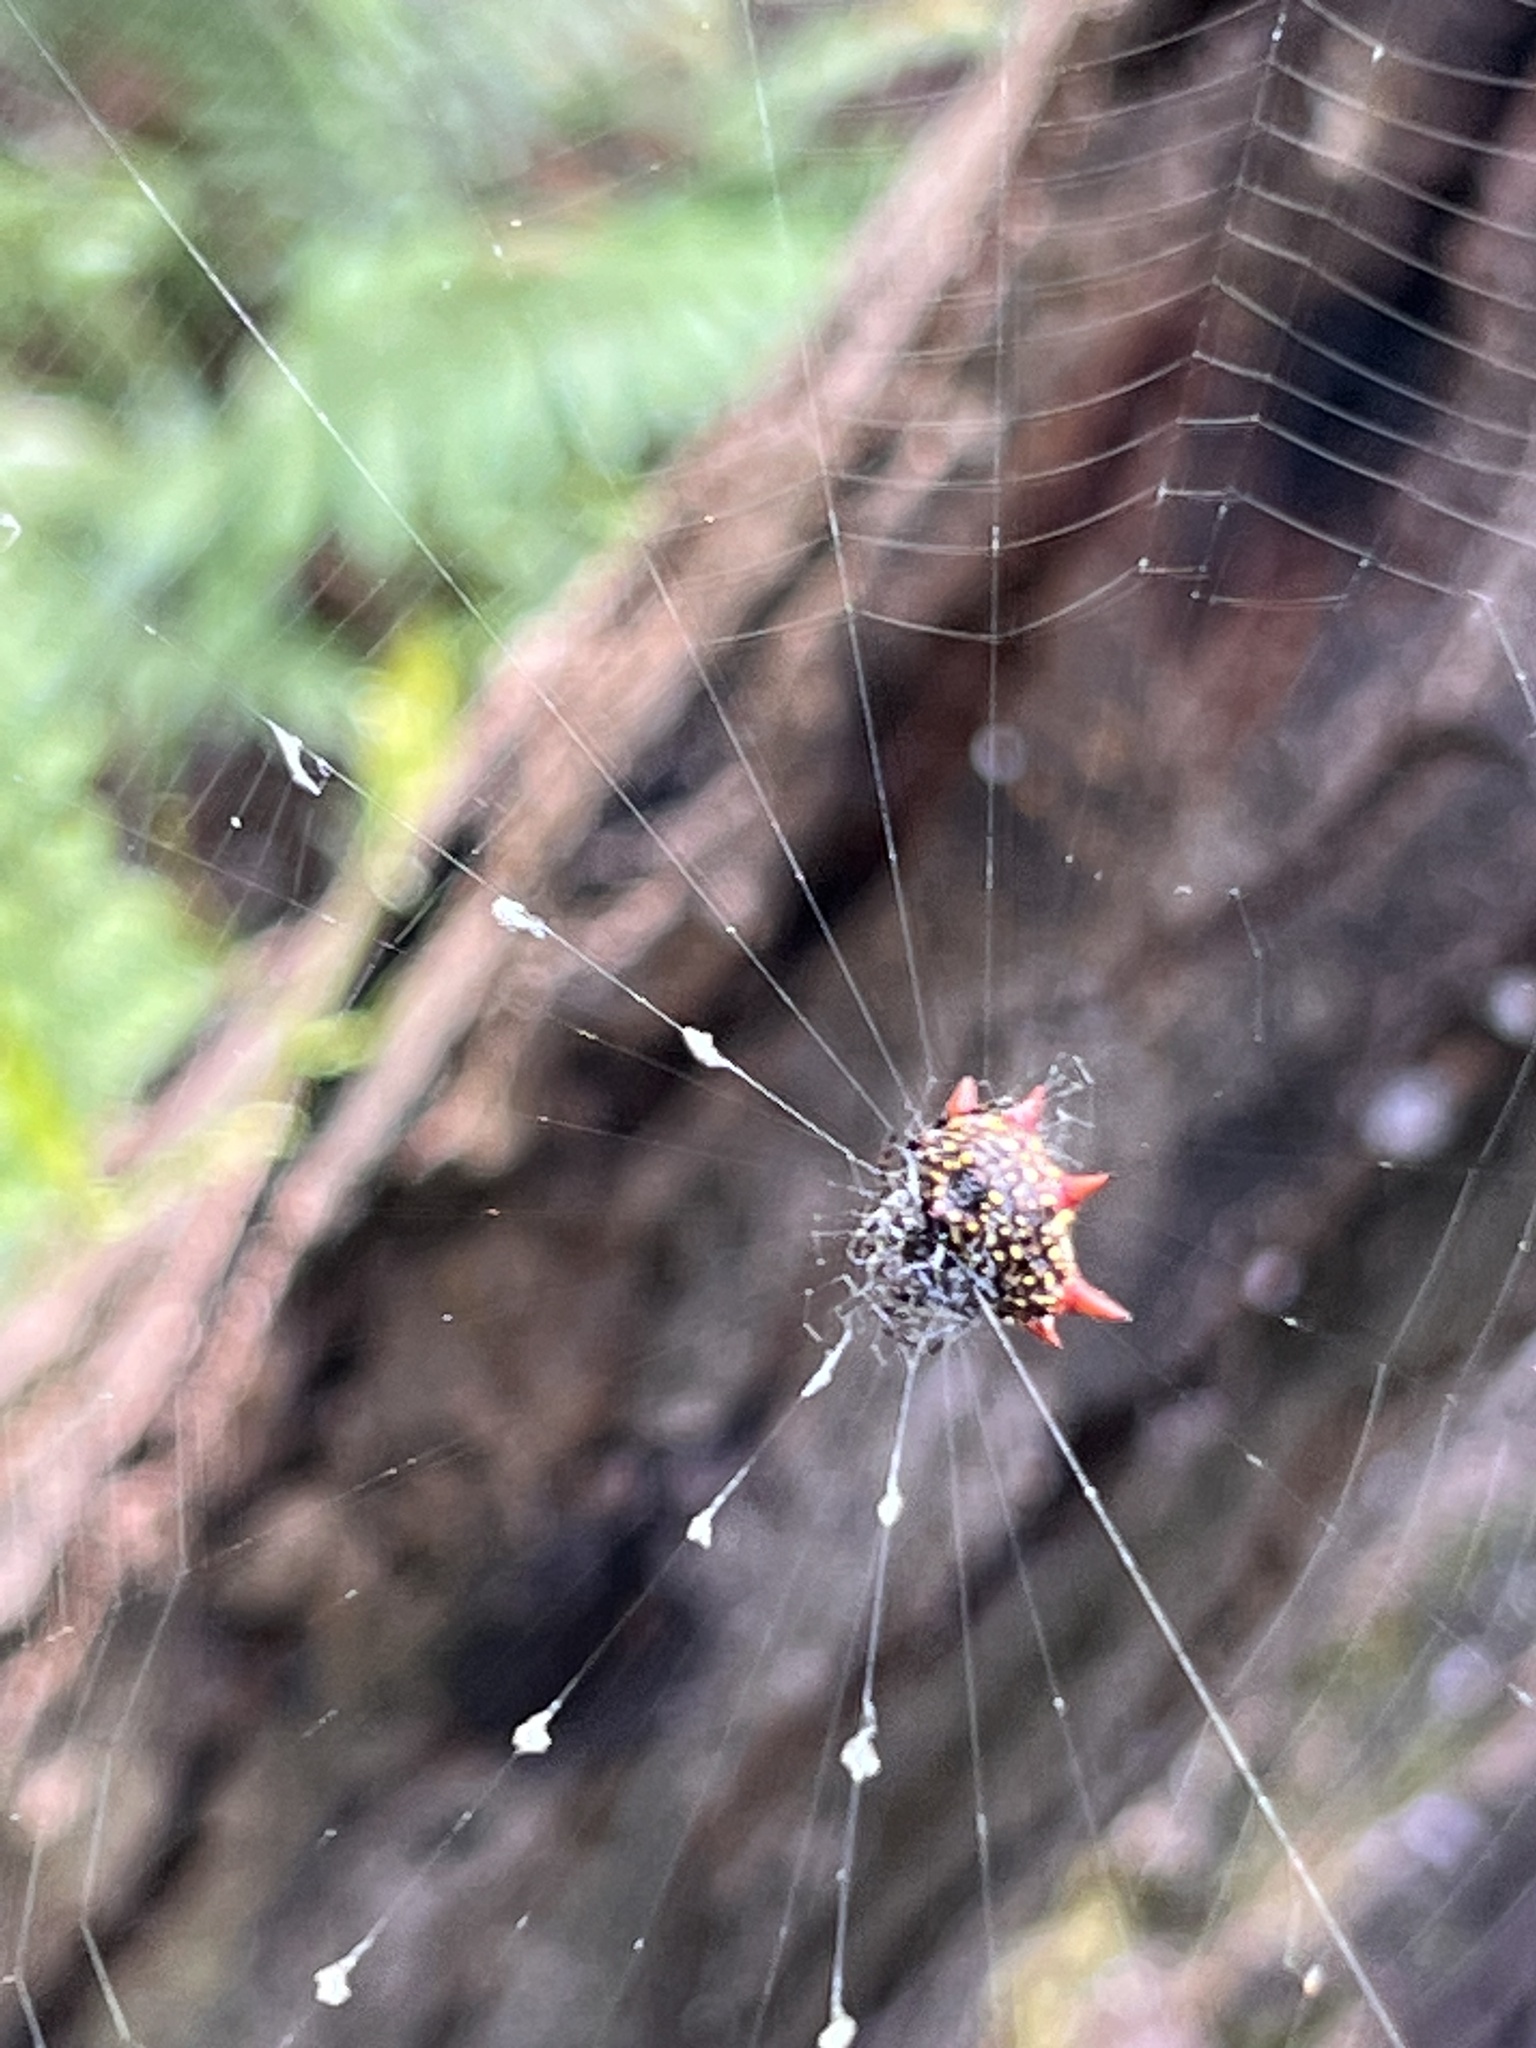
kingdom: Animalia
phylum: Arthropoda
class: Arachnida
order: Araneae
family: Araneidae
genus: Gasteracantha
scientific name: Gasteracantha cancriformis
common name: Orb weavers
